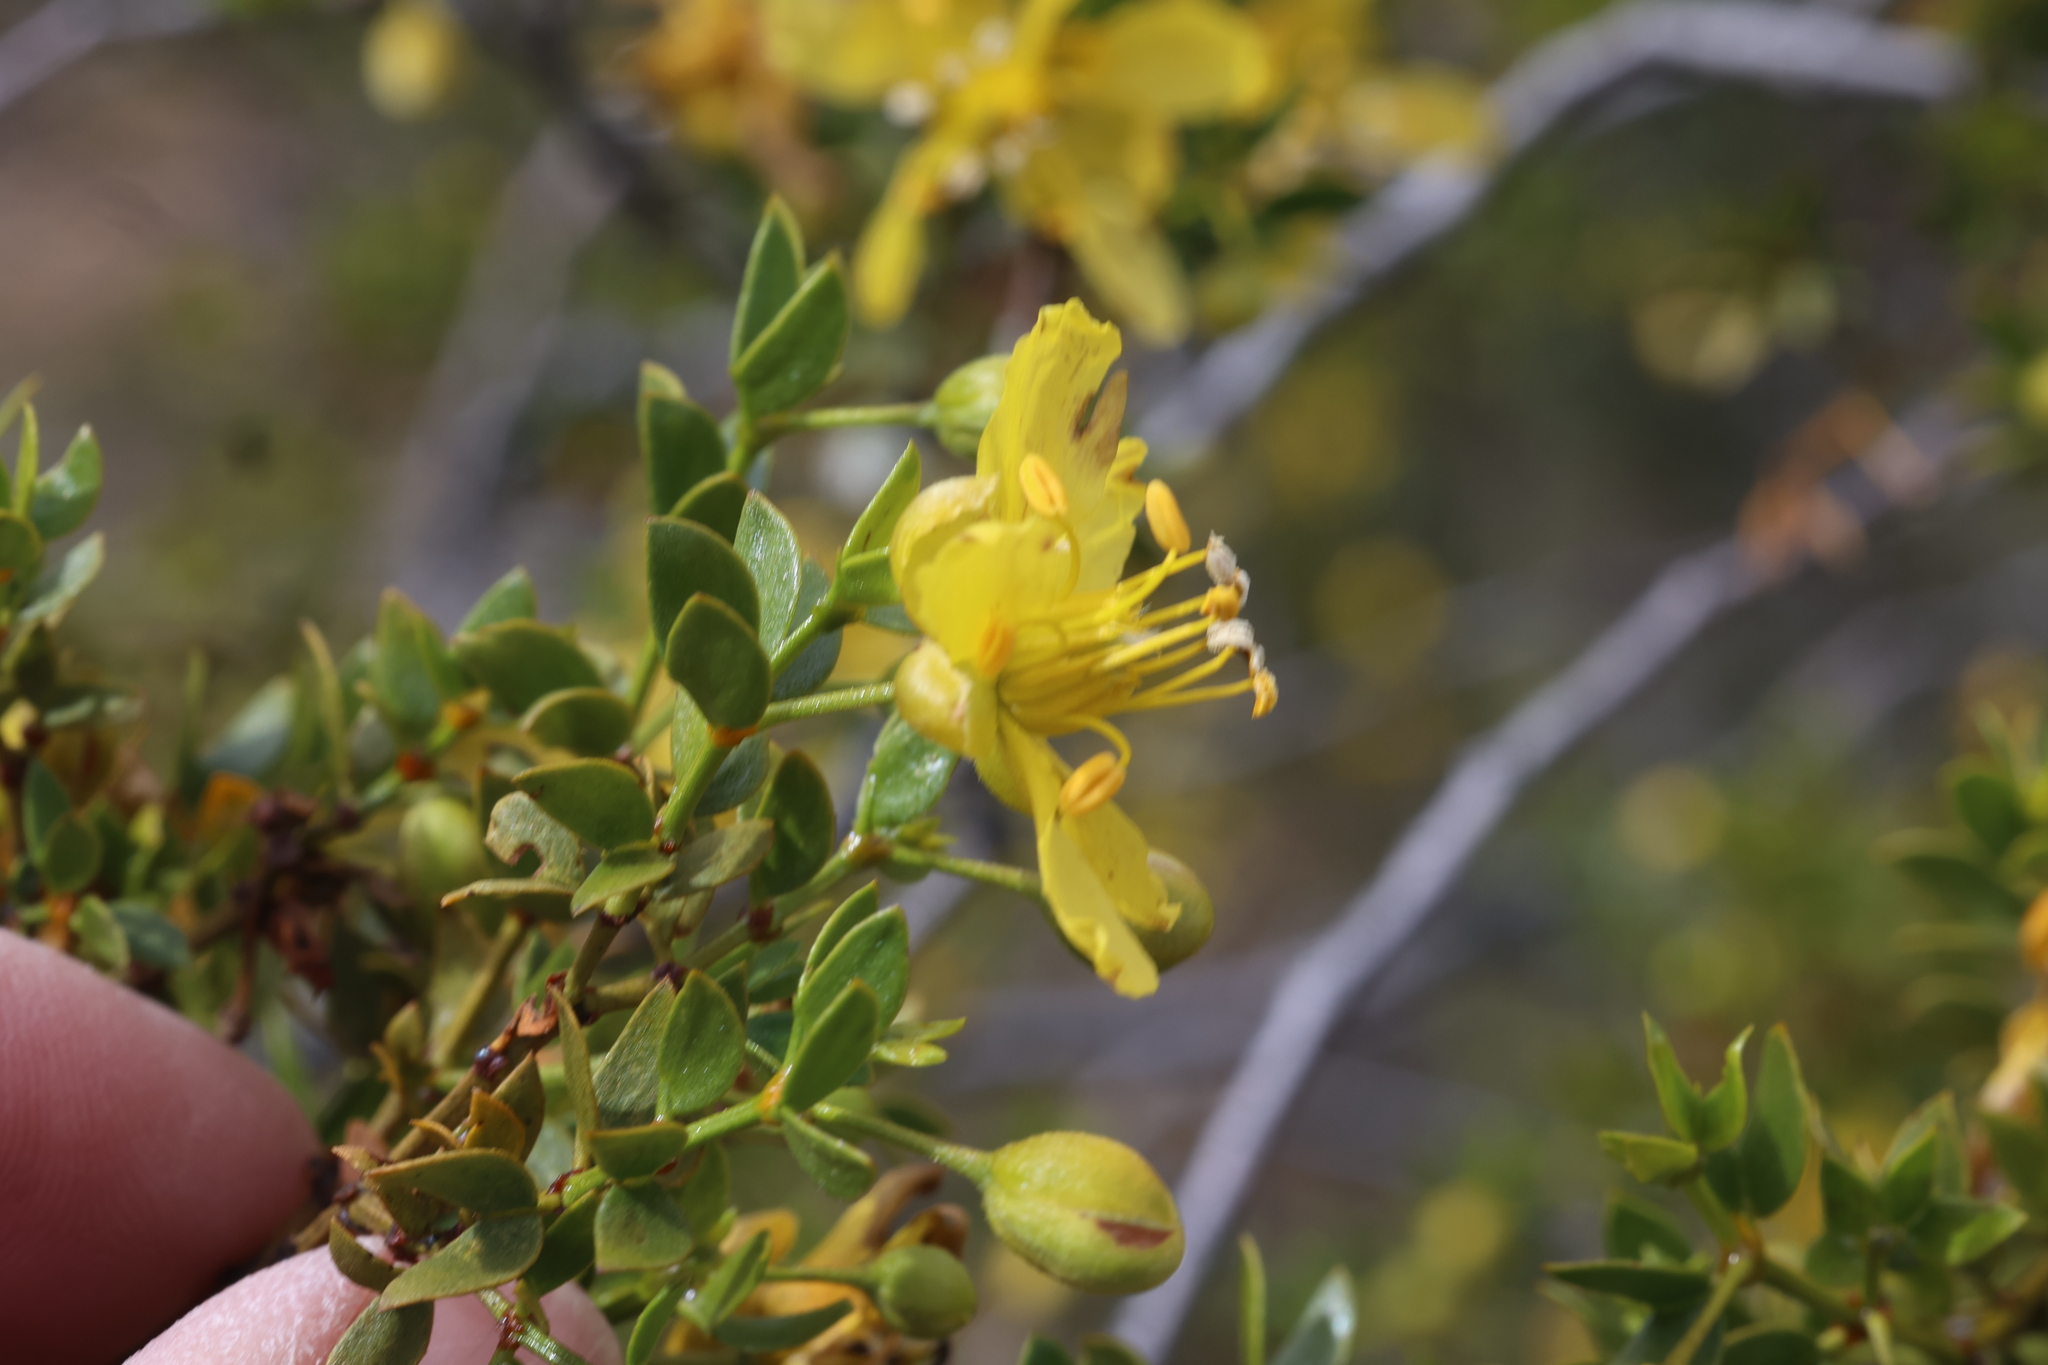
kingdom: Plantae
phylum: Tracheophyta
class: Magnoliopsida
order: Zygophyllales
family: Zygophyllaceae
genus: Larrea
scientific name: Larrea tridentata
